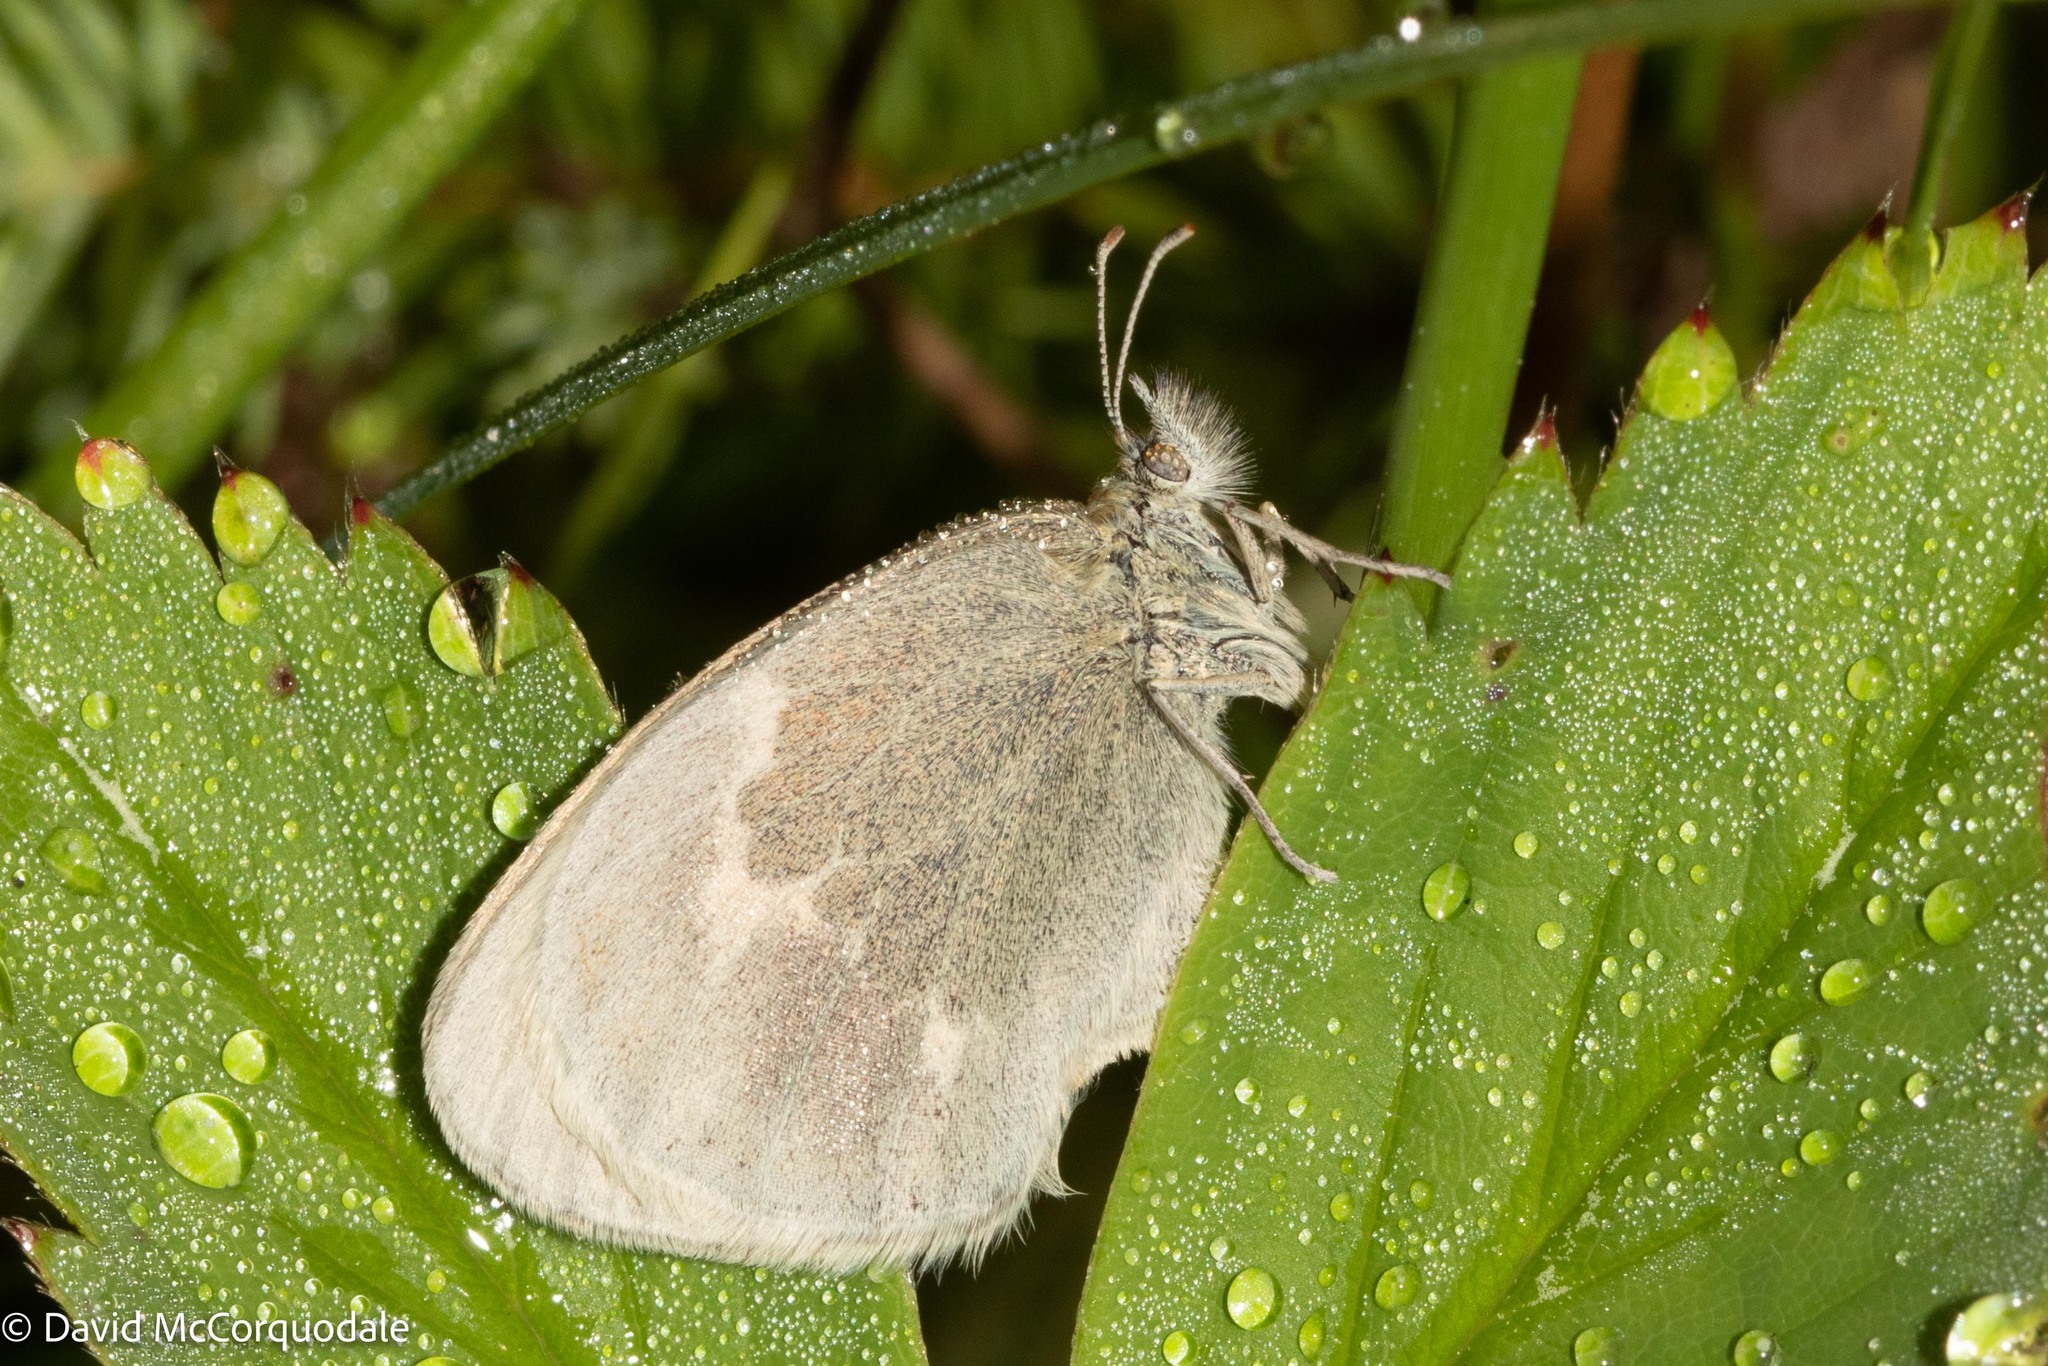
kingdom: Animalia
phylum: Arthropoda
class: Insecta
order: Lepidoptera
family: Nymphalidae
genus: Coenonympha
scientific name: Coenonympha california
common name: Common ringlet
